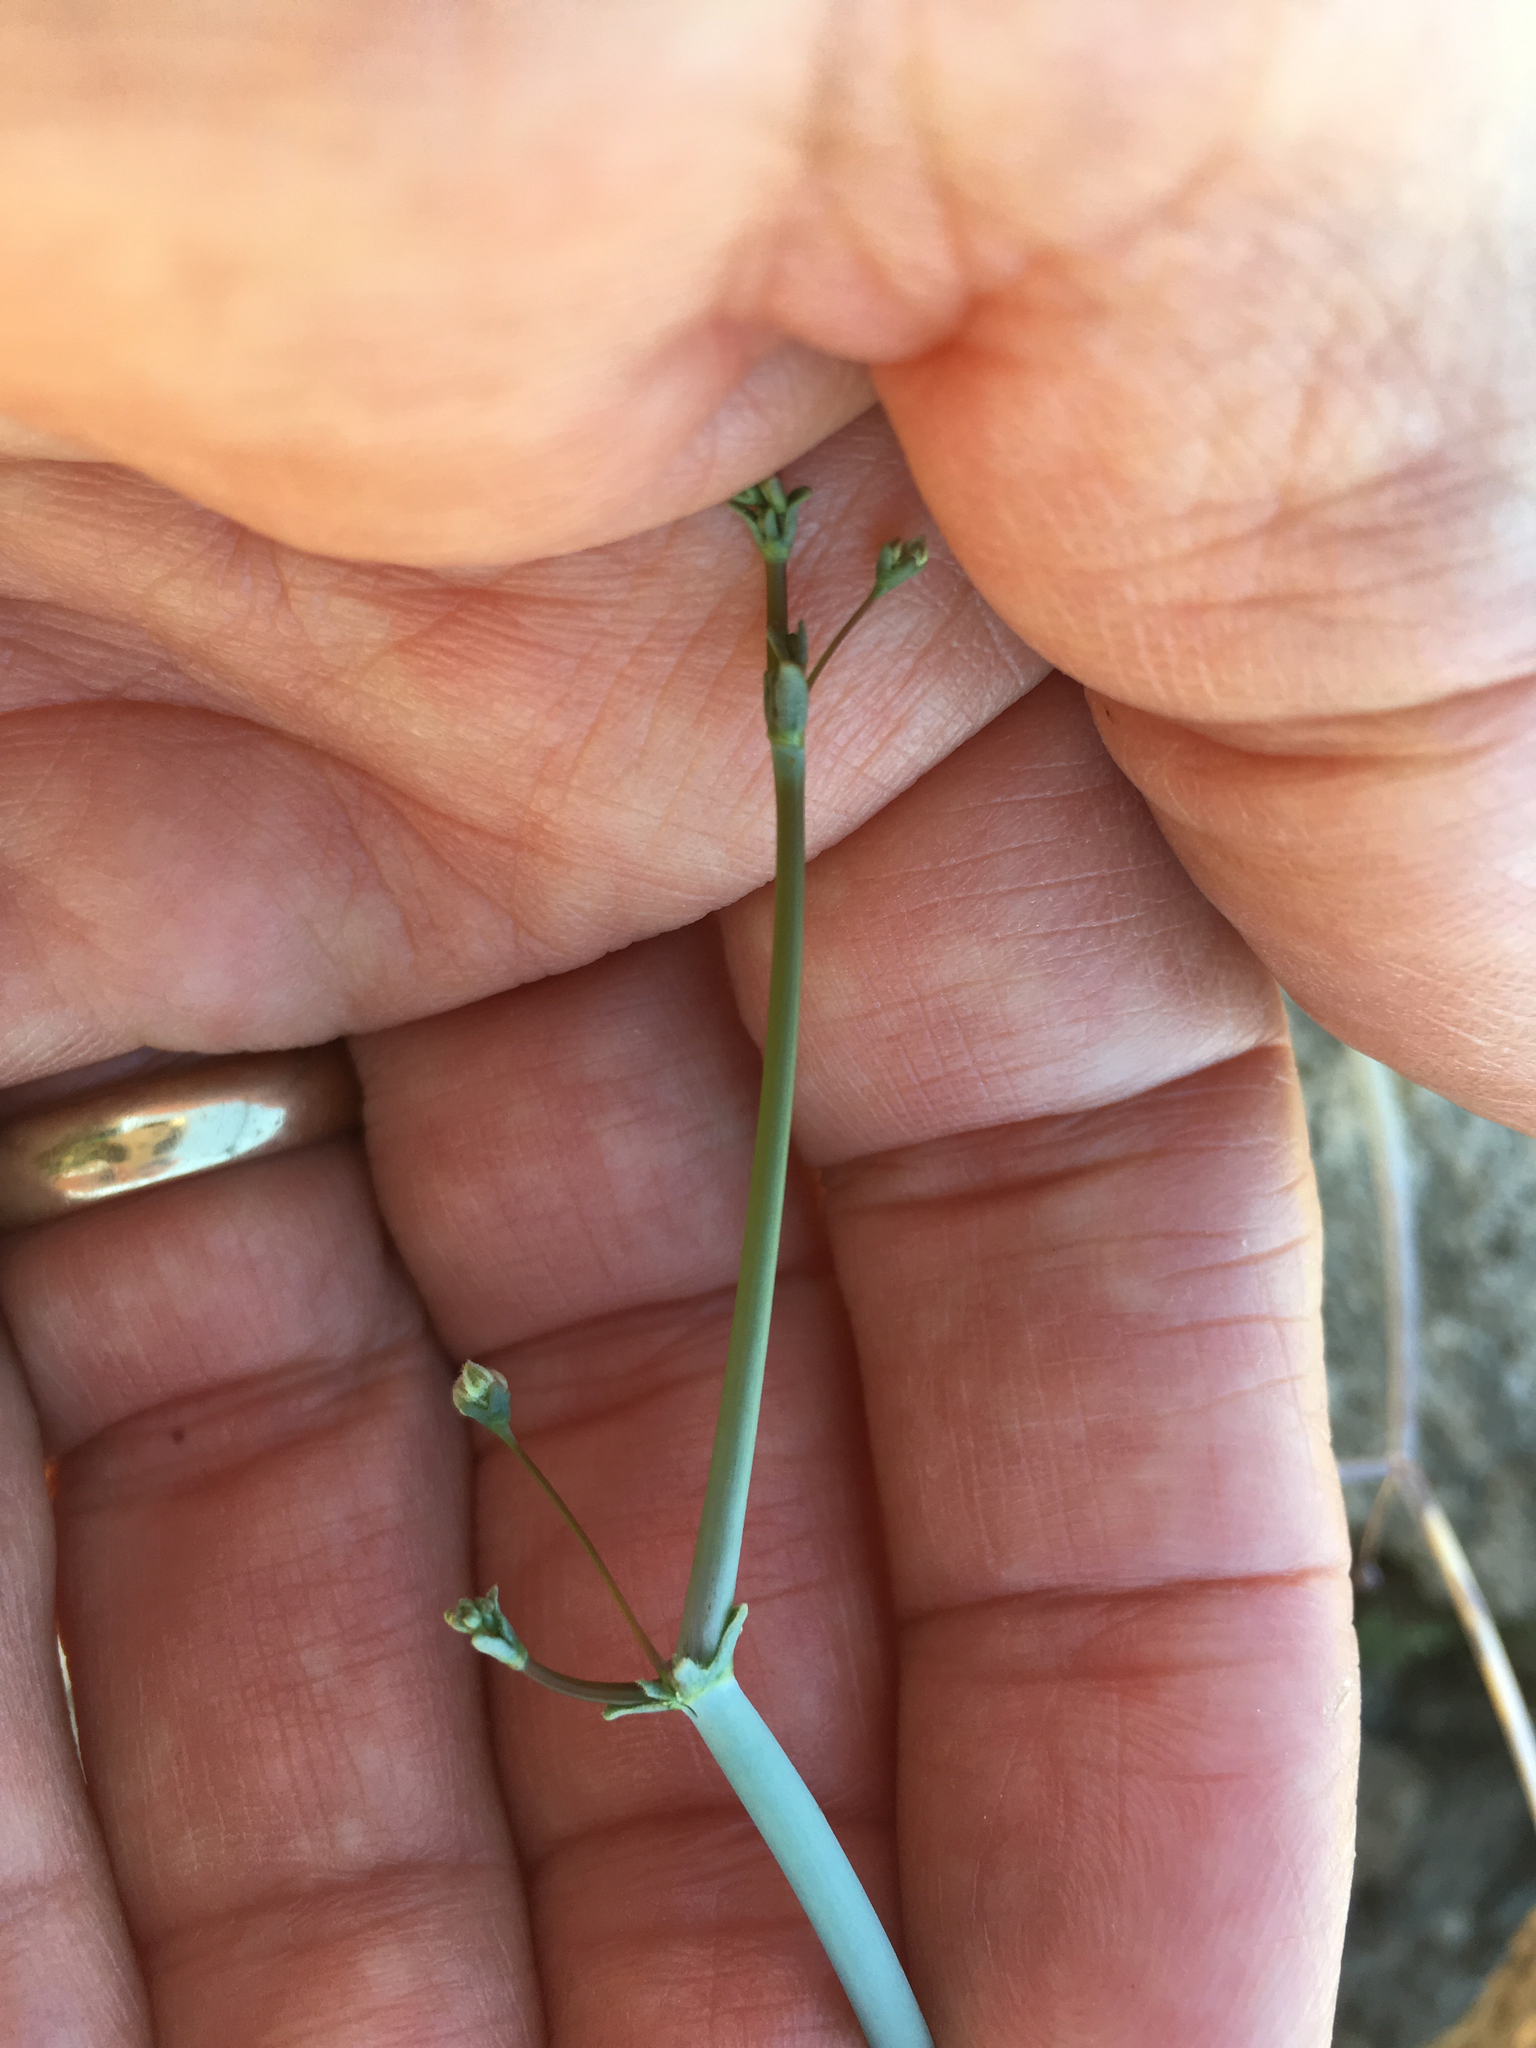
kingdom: Plantae
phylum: Tracheophyta
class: Magnoliopsida
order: Caryophyllales
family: Polygonaceae
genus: Eriogonum
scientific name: Eriogonum inflatum
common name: Desert trumpet
